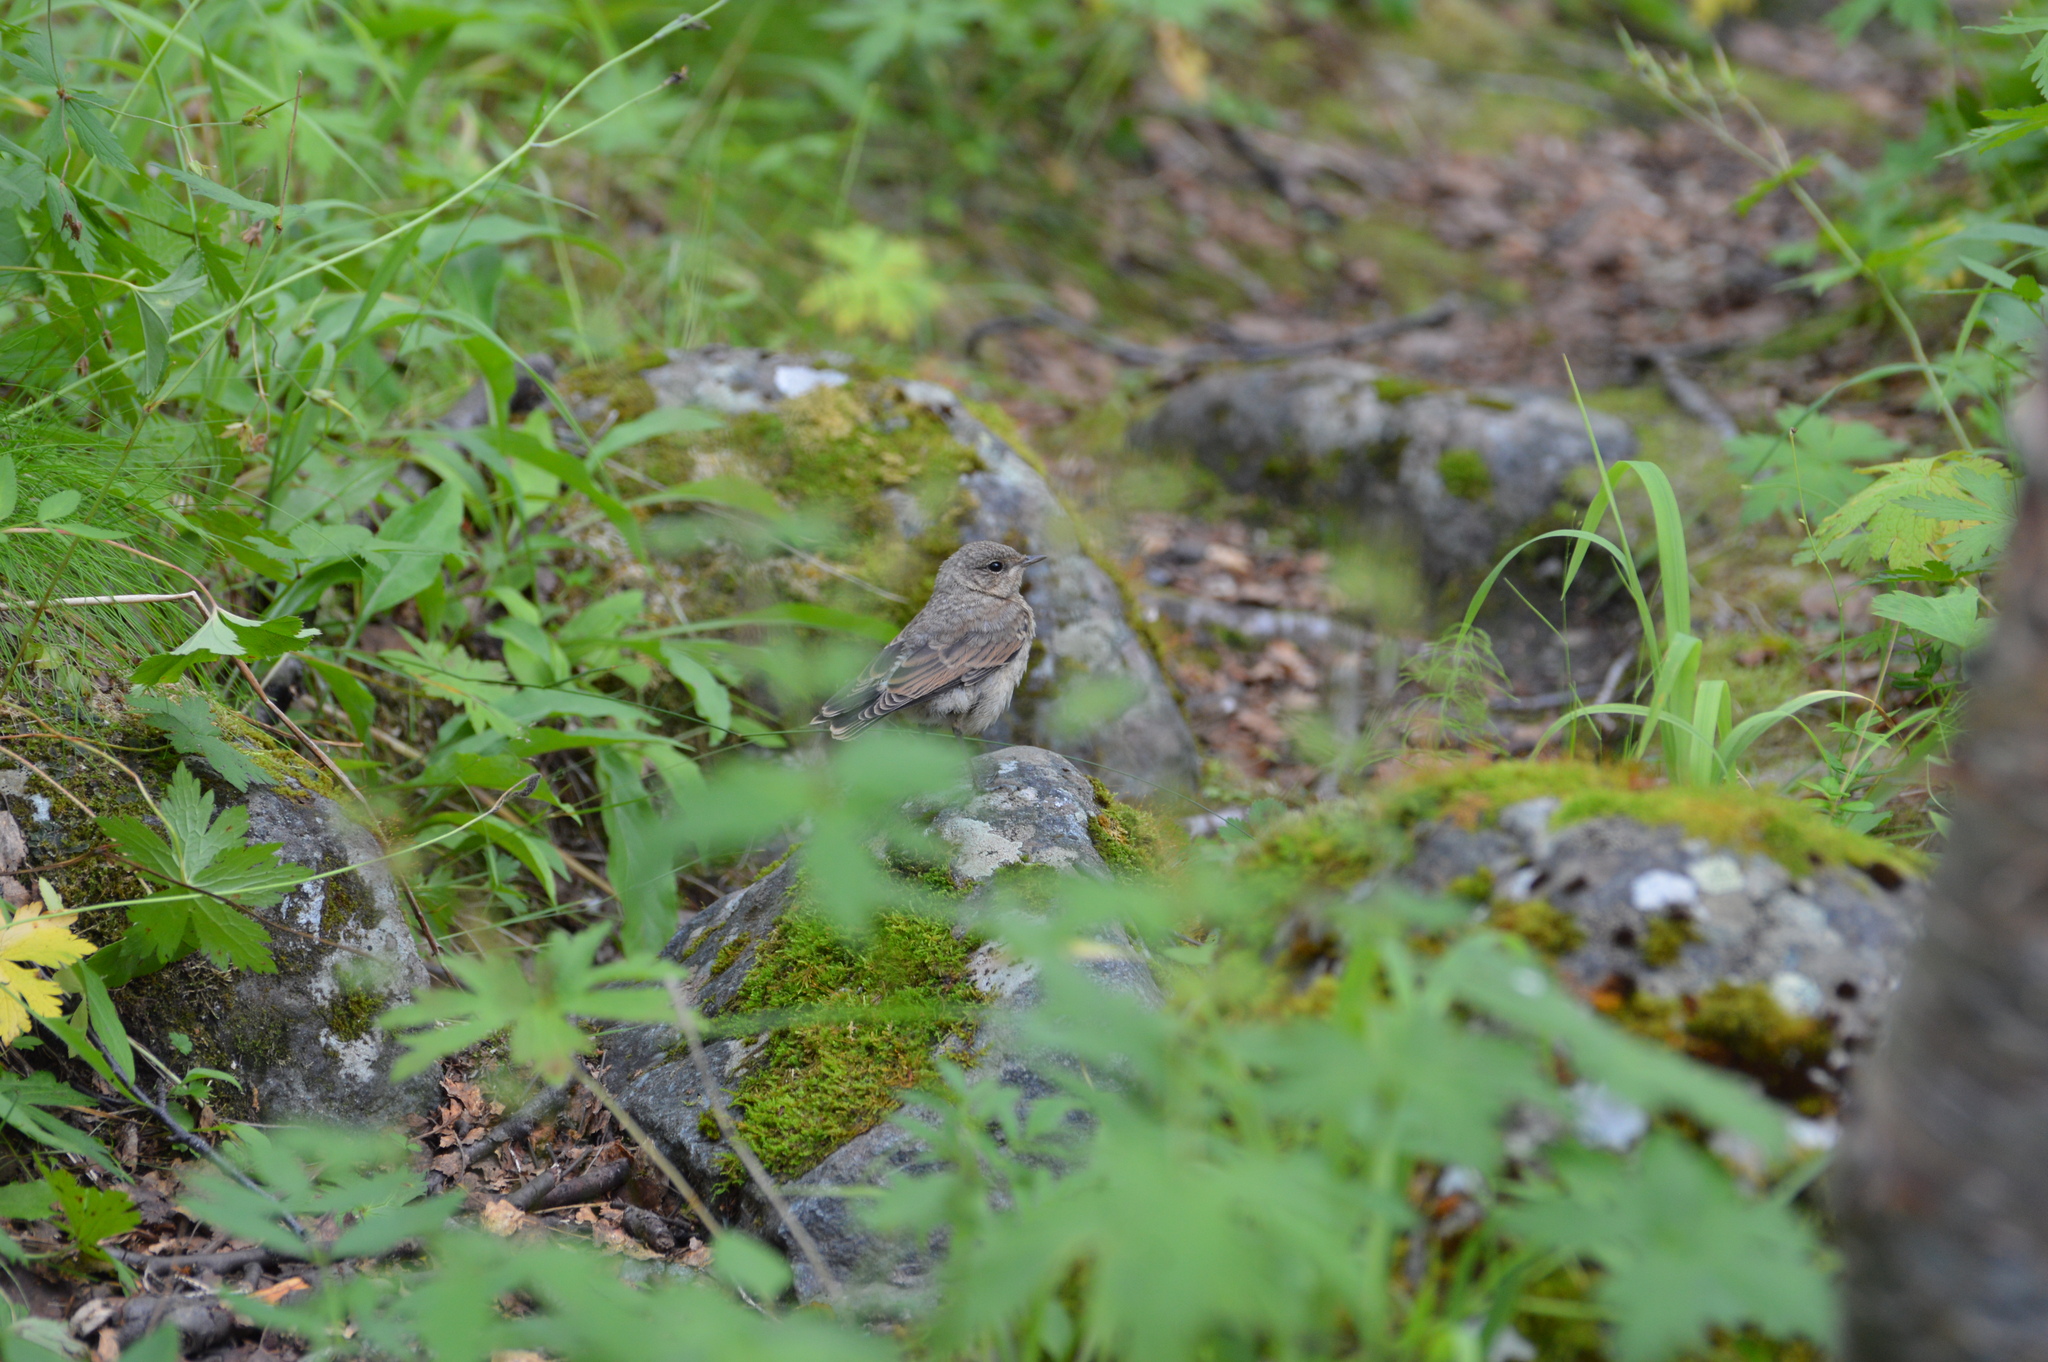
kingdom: Animalia
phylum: Chordata
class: Aves
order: Passeriformes
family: Muscicapidae
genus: Oenanthe
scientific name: Oenanthe oenanthe
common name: Northern wheatear
